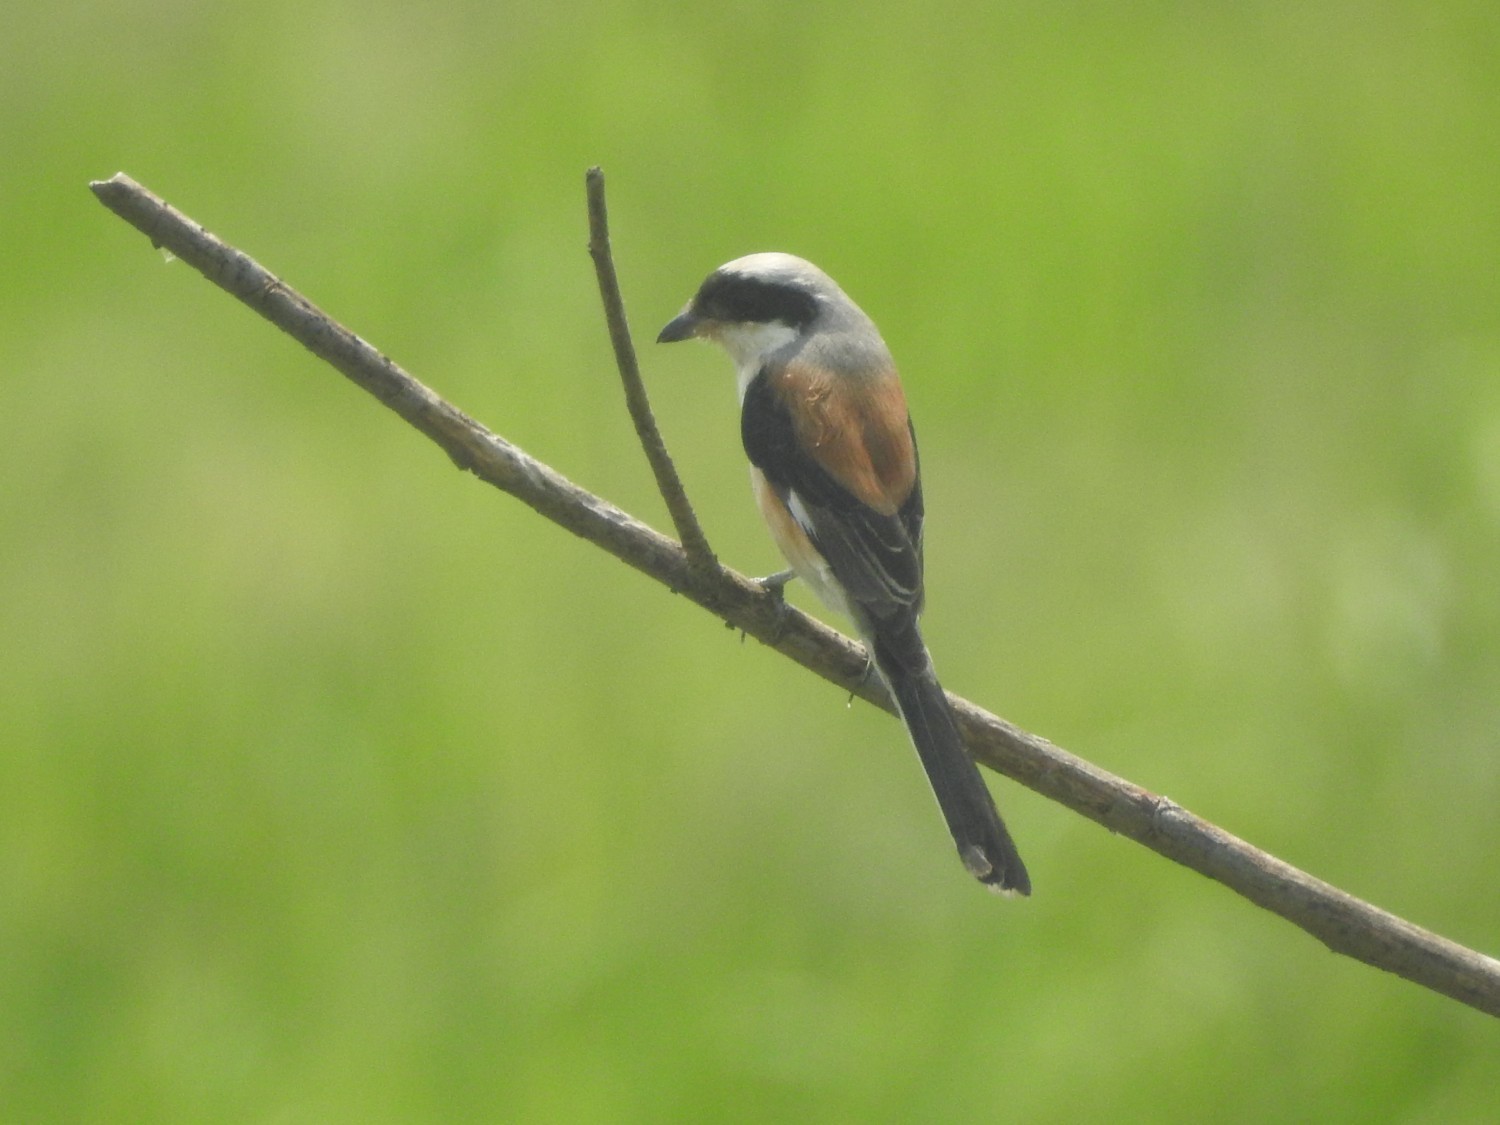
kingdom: Animalia
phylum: Chordata
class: Aves
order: Passeriformes
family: Laniidae
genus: Lanius
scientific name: Lanius schach
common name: Long-tailed shrike
